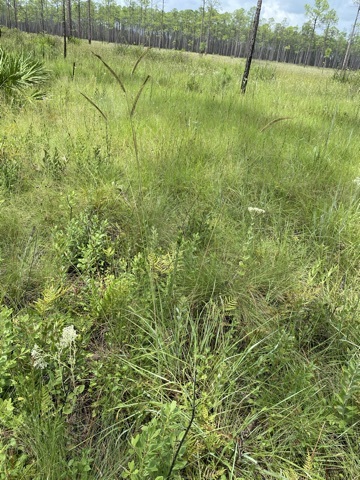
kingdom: Plantae
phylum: Tracheophyta
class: Liliopsida
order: Poales
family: Poaceae
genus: Ctenium
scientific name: Ctenium aromaticum
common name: Toothache grass
